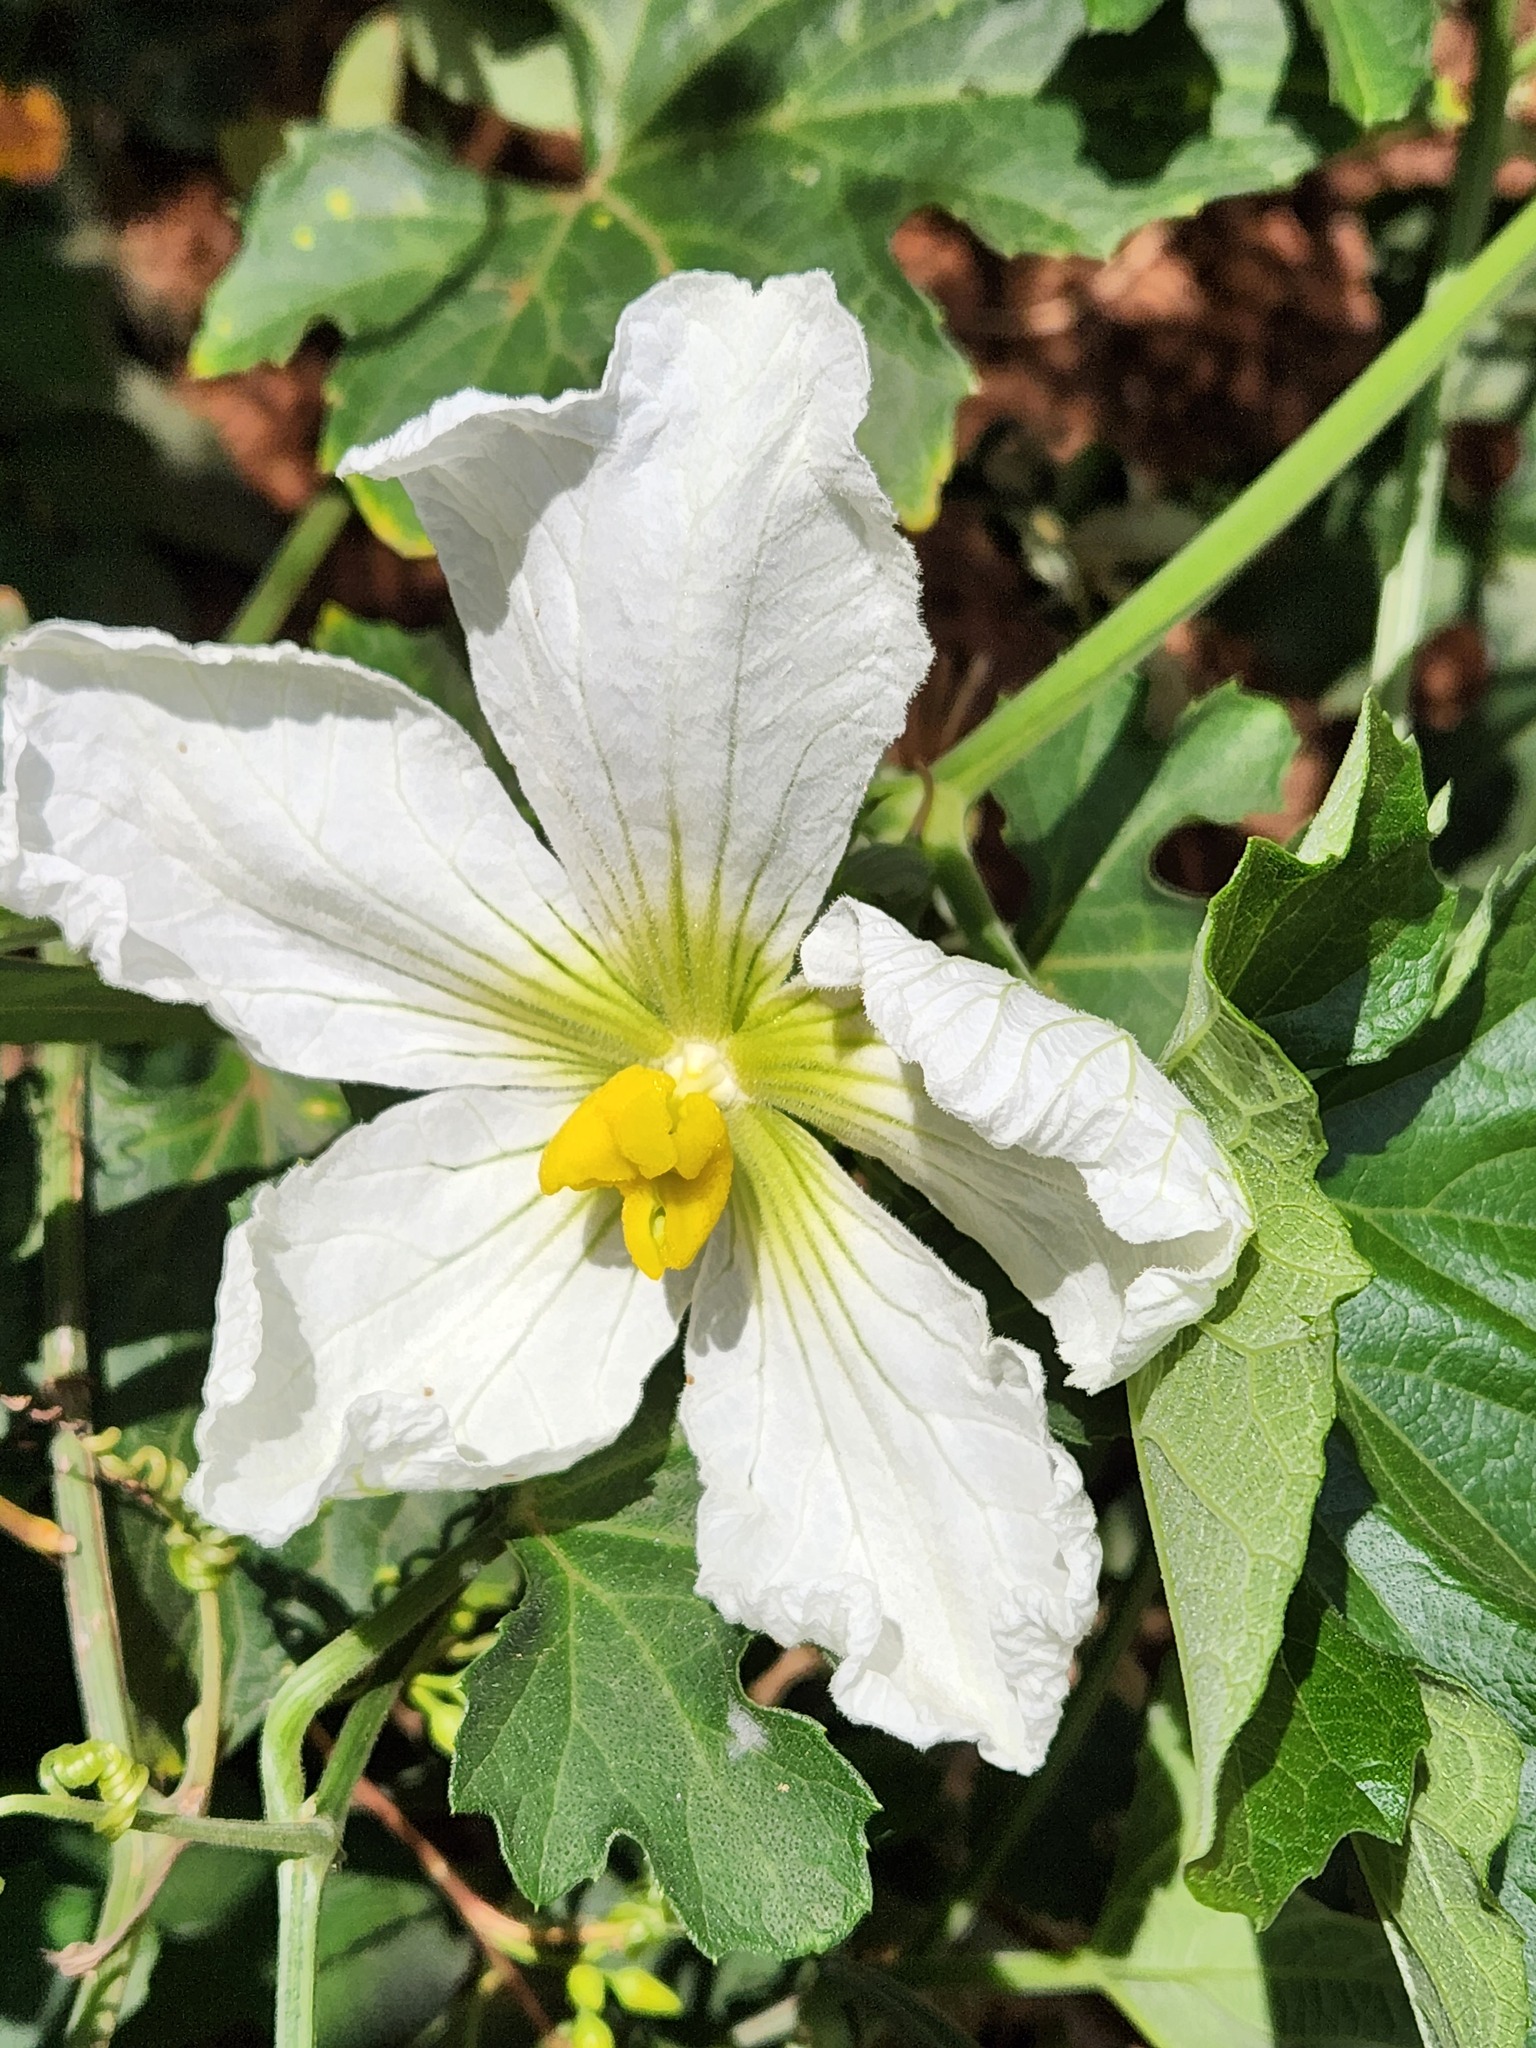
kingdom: Plantae
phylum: Tracheophyta
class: Magnoliopsida
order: Cucurbitales
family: Cucurbitaceae
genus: Lagenaria
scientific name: Lagenaria sphaerica
